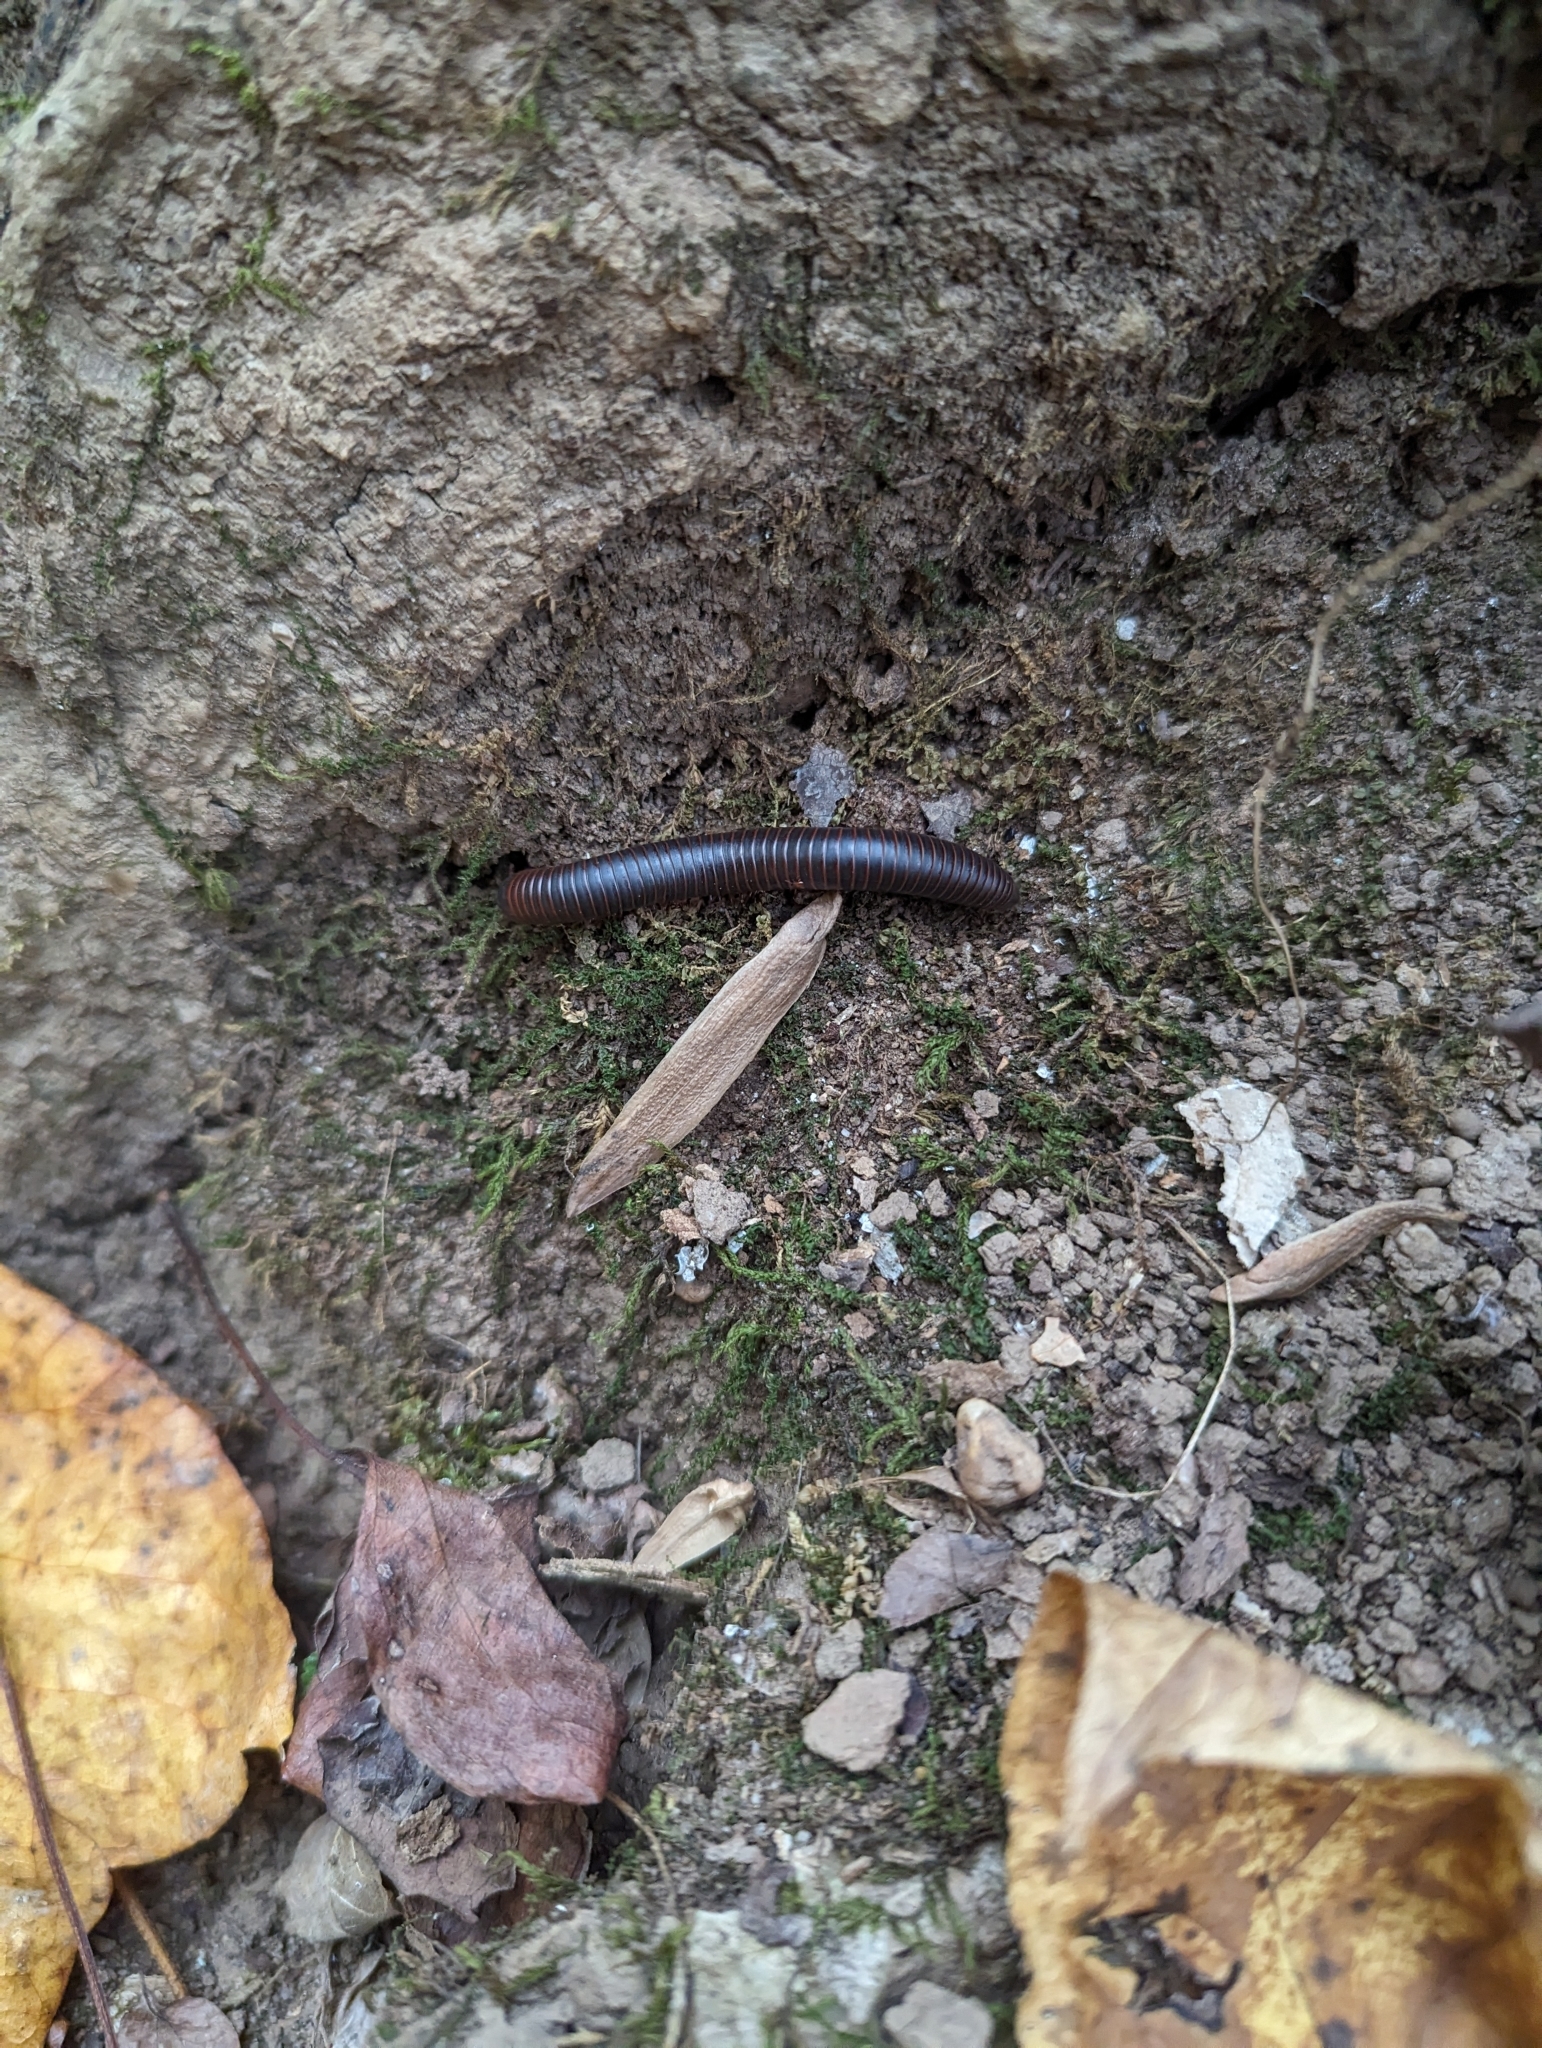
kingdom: Animalia
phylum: Arthropoda
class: Diplopoda
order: Spirobolida
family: Spirobolidae
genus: Narceus
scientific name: Narceus
